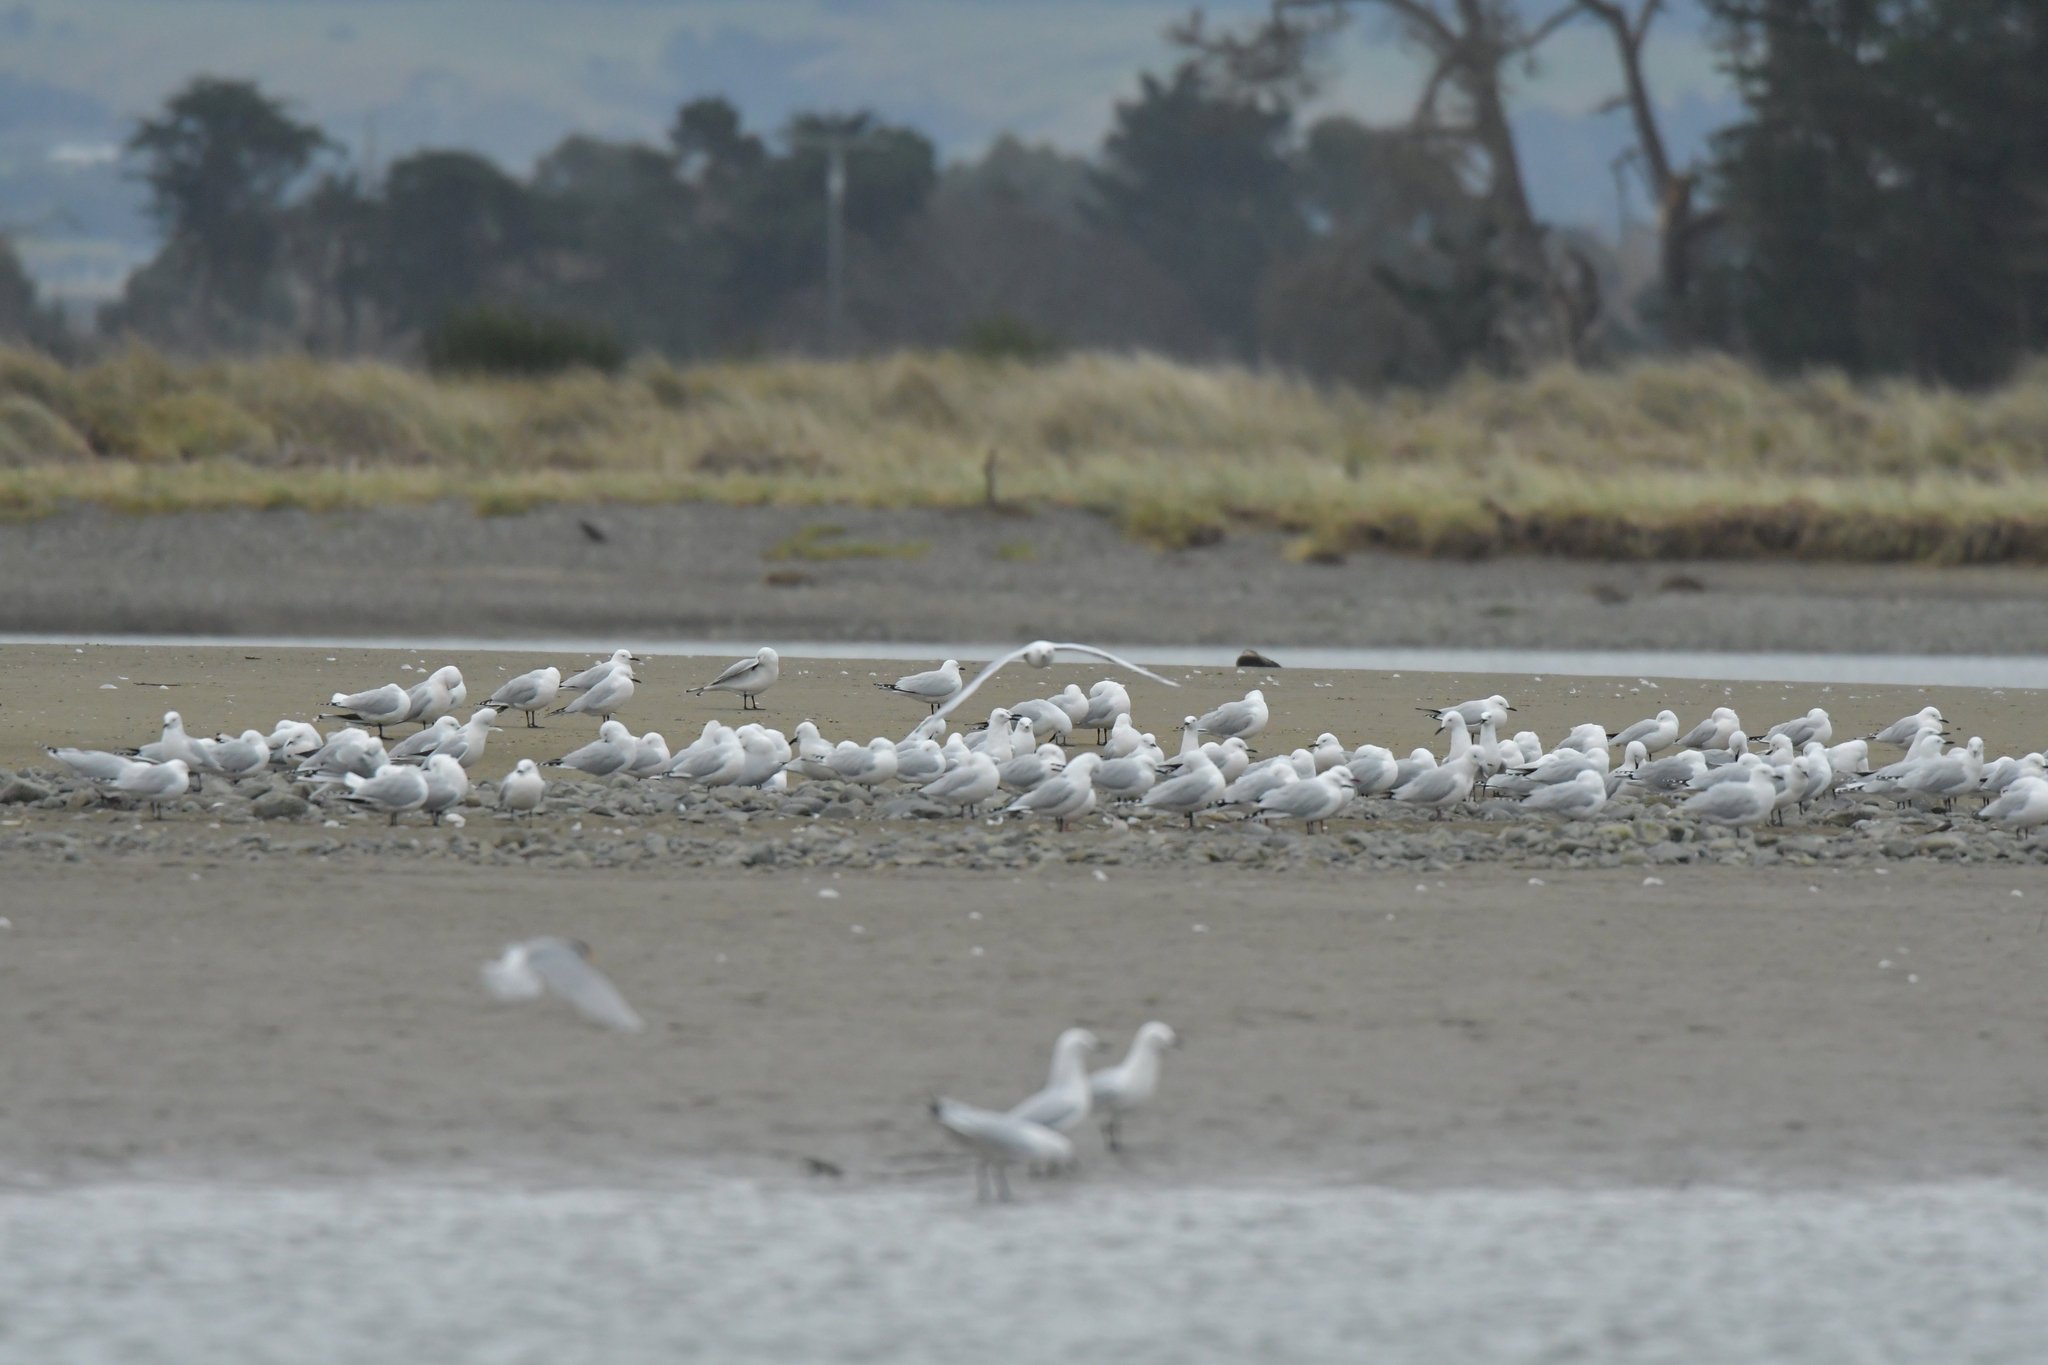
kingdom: Animalia
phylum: Chordata
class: Aves
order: Charadriiformes
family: Laridae
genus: Chroicocephalus
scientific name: Chroicocephalus bulleri
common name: Black-billed gull
